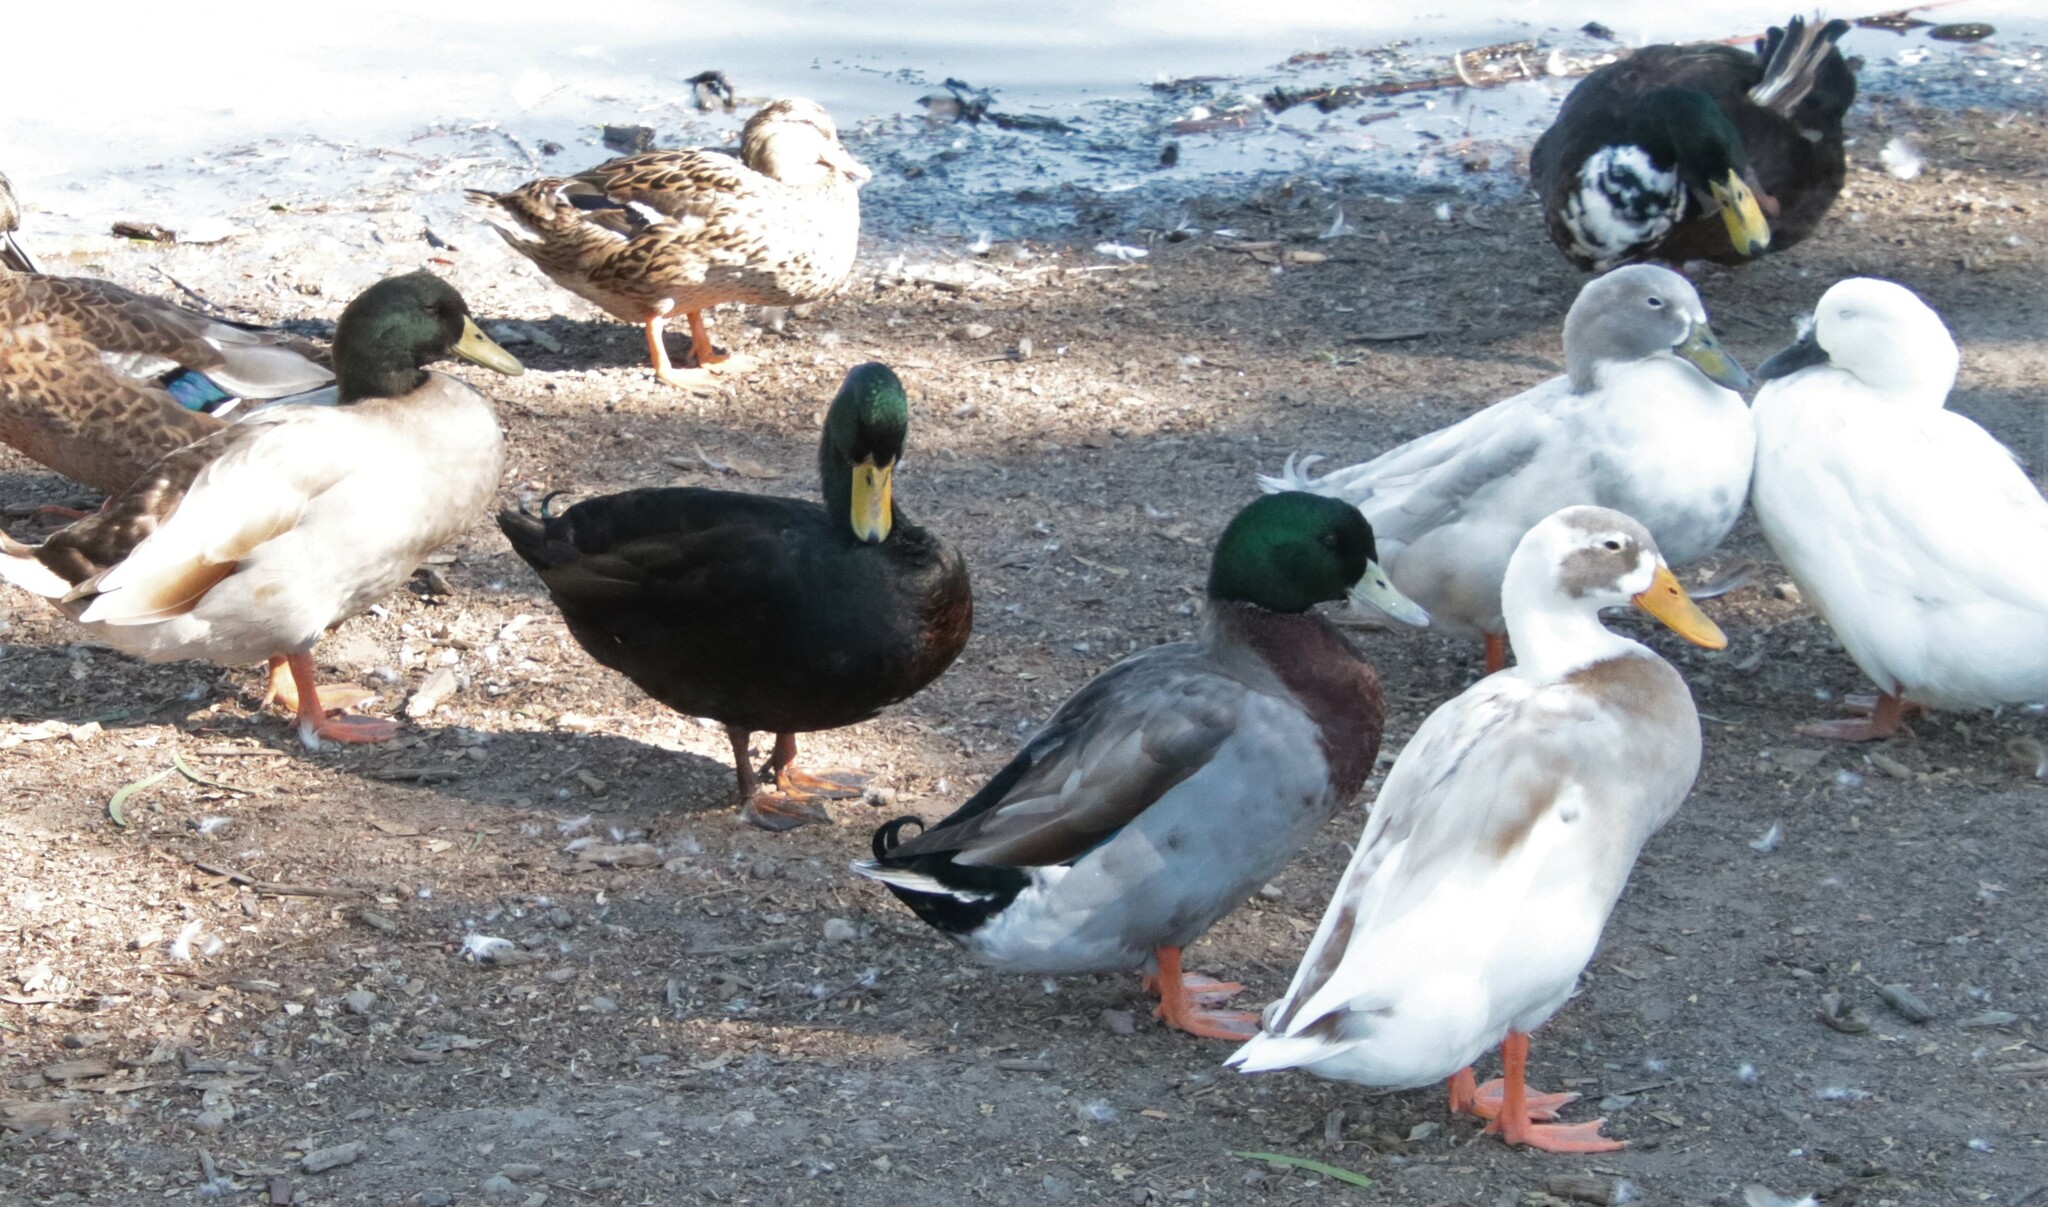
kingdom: Animalia
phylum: Chordata
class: Aves
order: Anseriformes
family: Anatidae
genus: Anas
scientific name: Anas platyrhynchos
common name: Mallard
